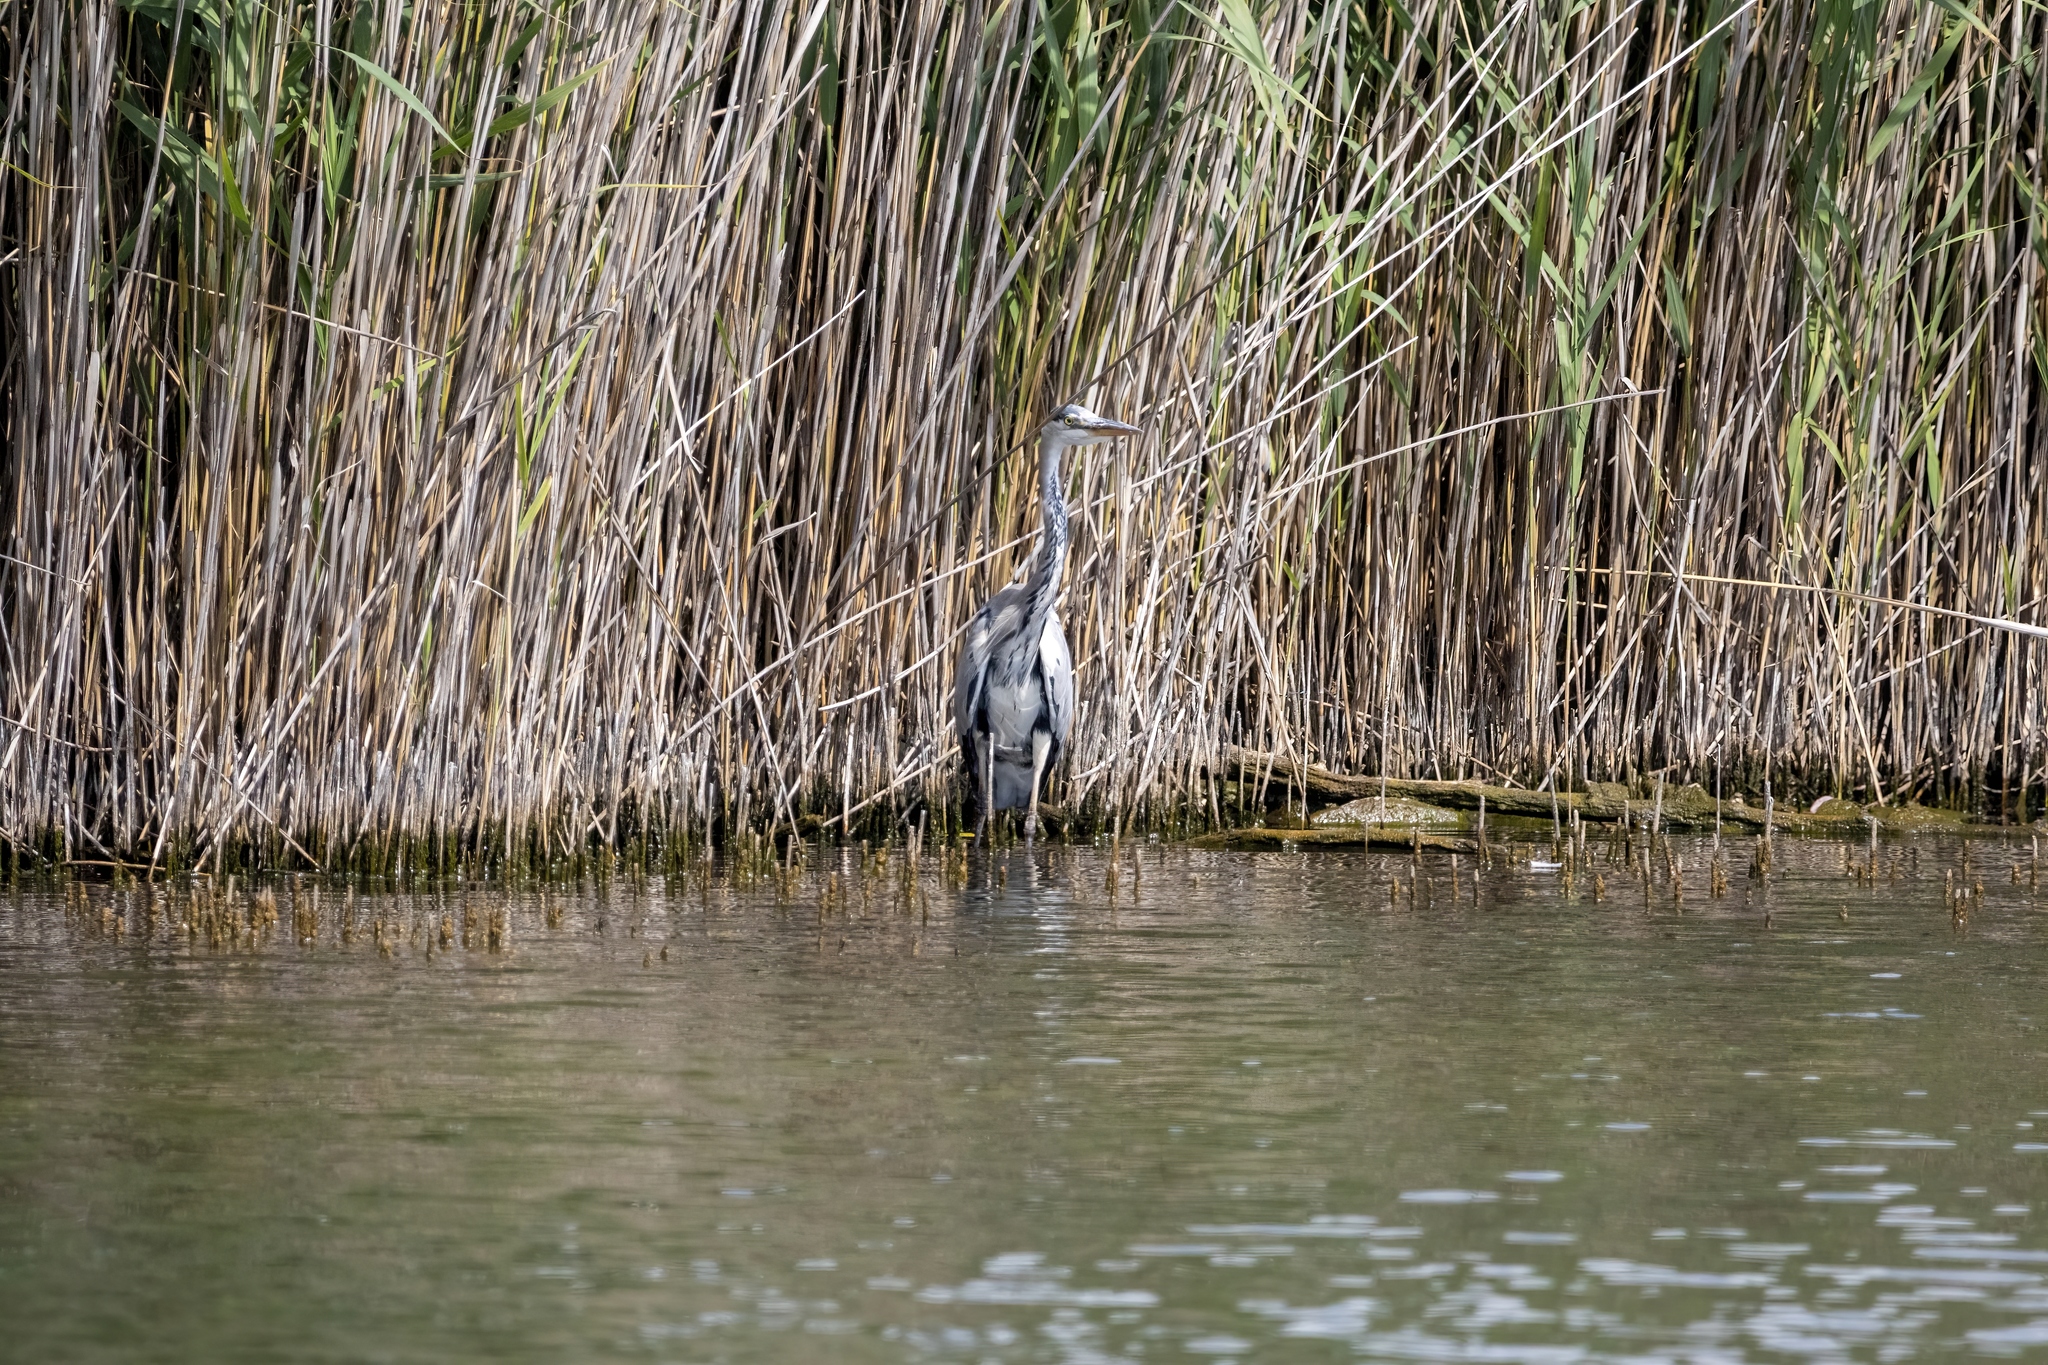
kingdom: Animalia
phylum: Chordata
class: Aves
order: Pelecaniformes
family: Ardeidae
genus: Ardea
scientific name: Ardea cinerea
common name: Grey heron
